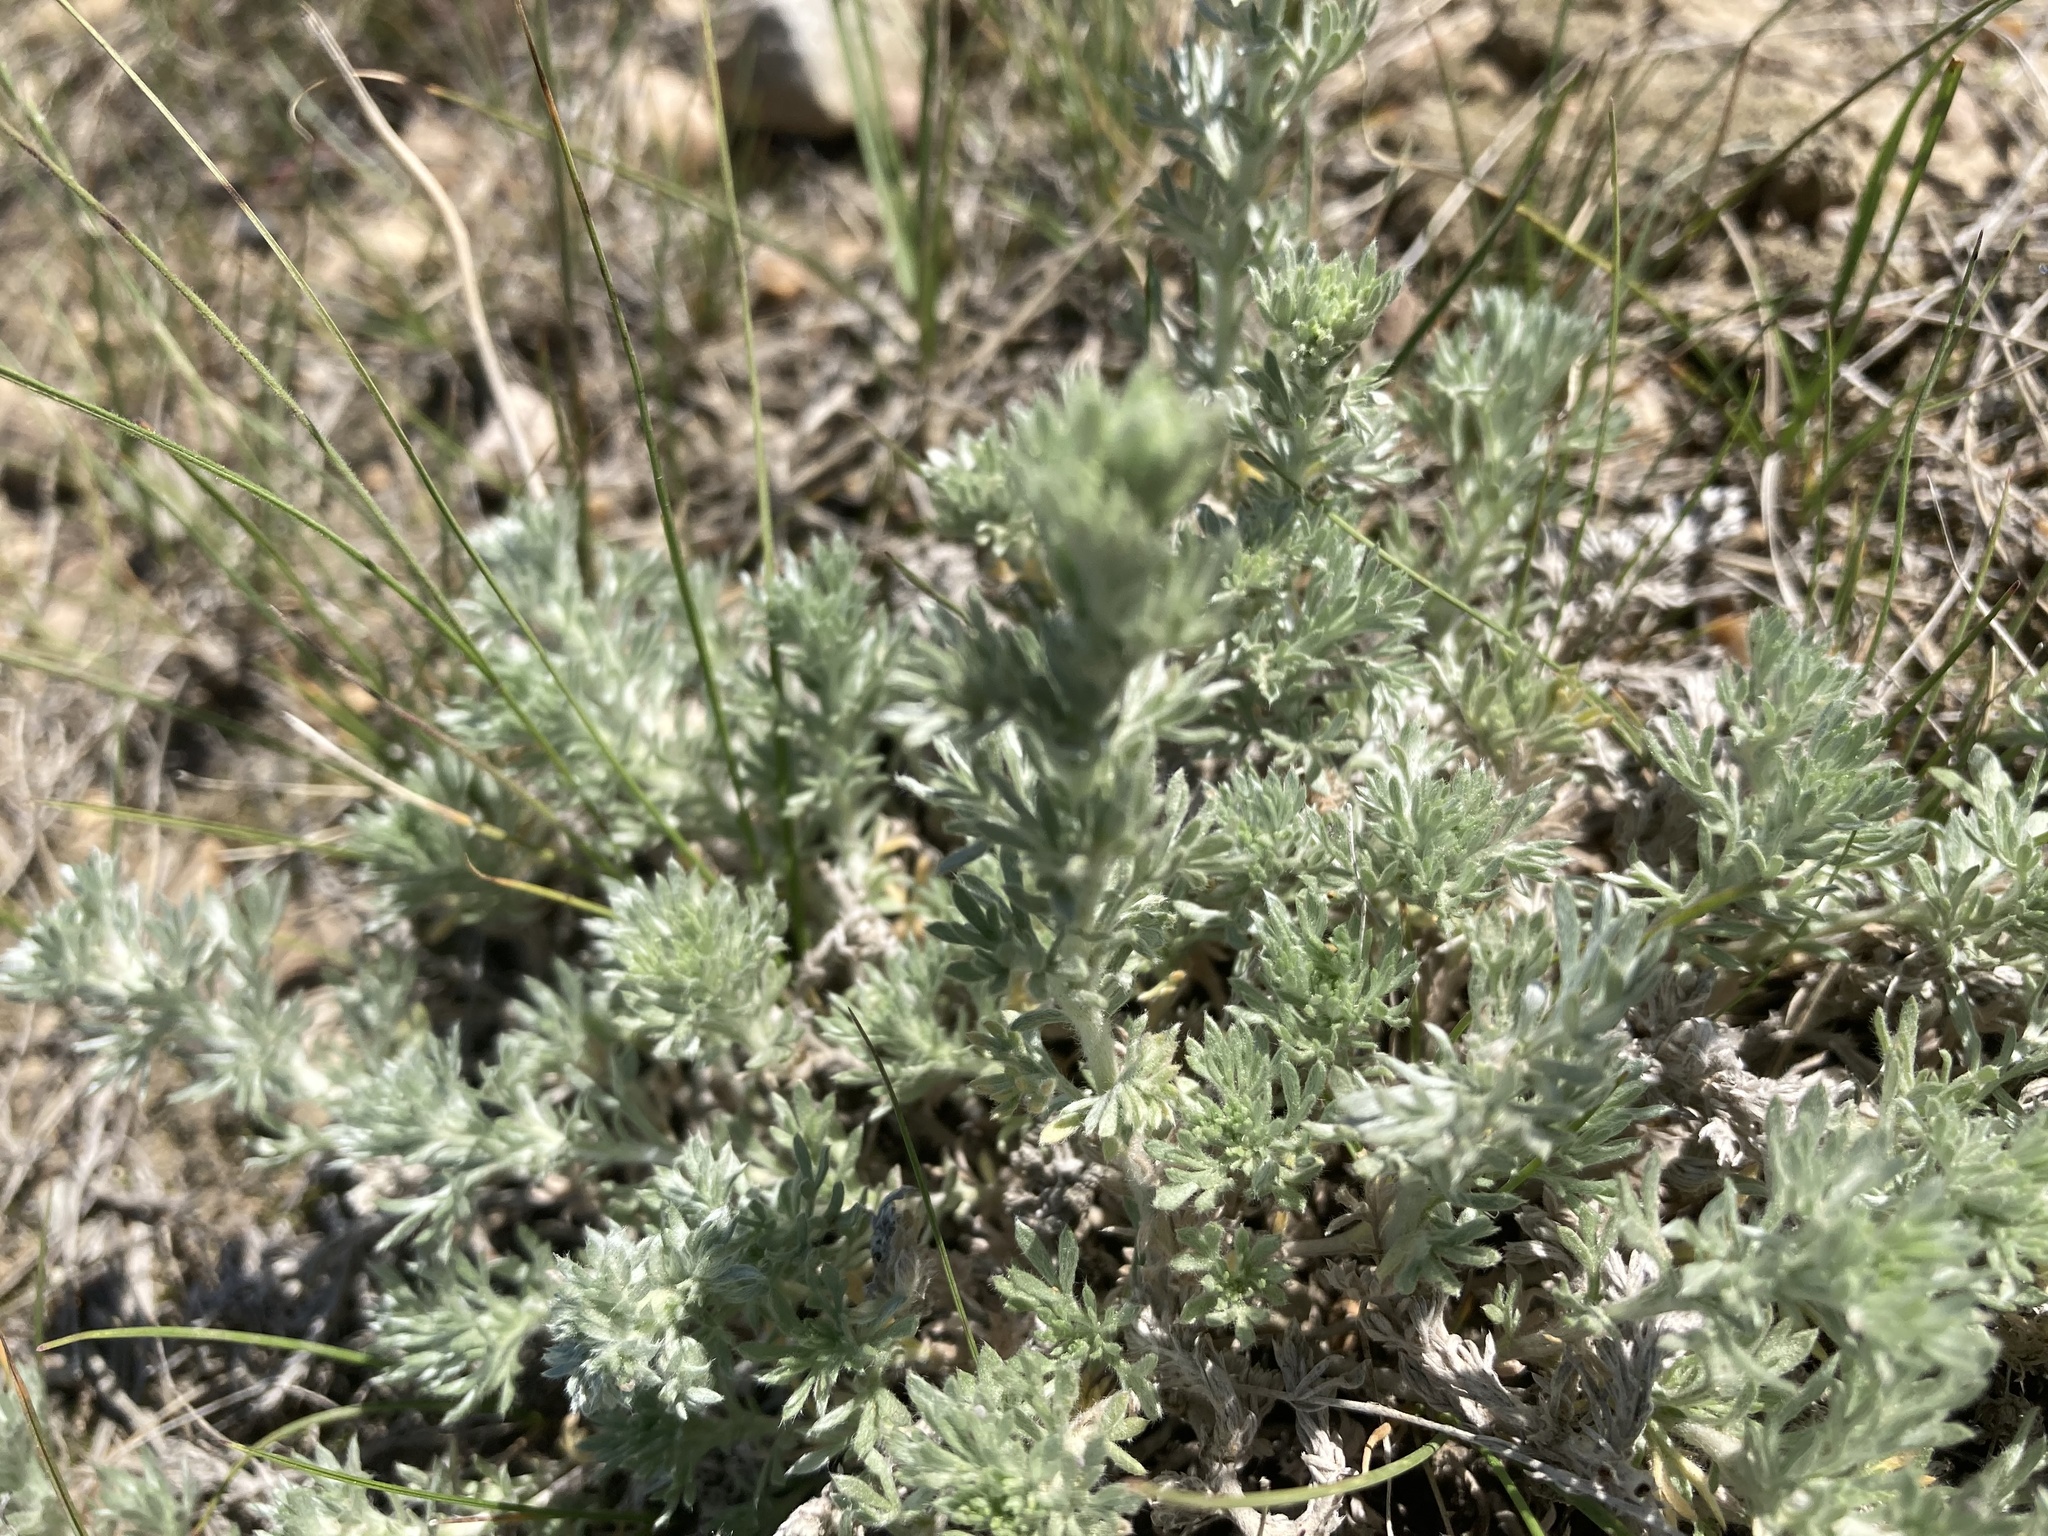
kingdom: Plantae
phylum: Tracheophyta
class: Magnoliopsida
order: Asterales
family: Asteraceae
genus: Artemisia
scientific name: Artemisia frigida
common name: Prairie sagewort
